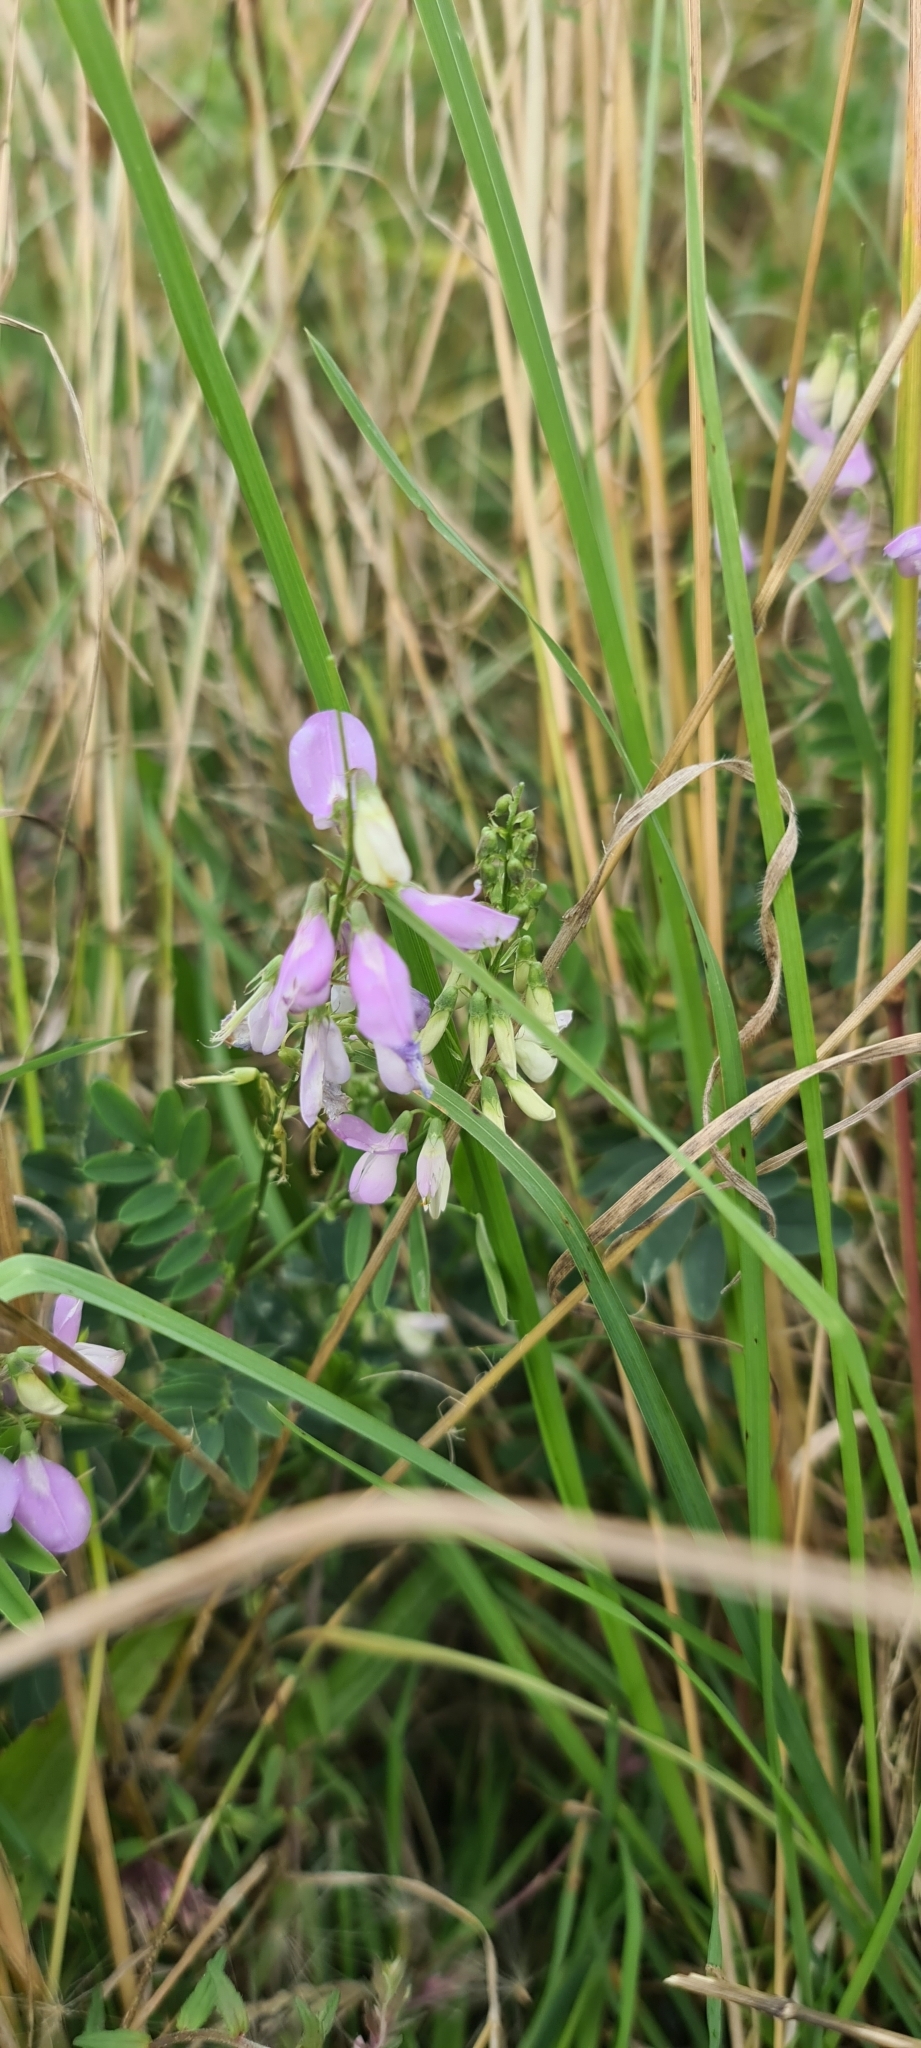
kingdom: Plantae
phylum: Tracheophyta
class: Magnoliopsida
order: Fabales
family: Fabaceae
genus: Galega
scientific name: Galega officinalis
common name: Goat's-rue
